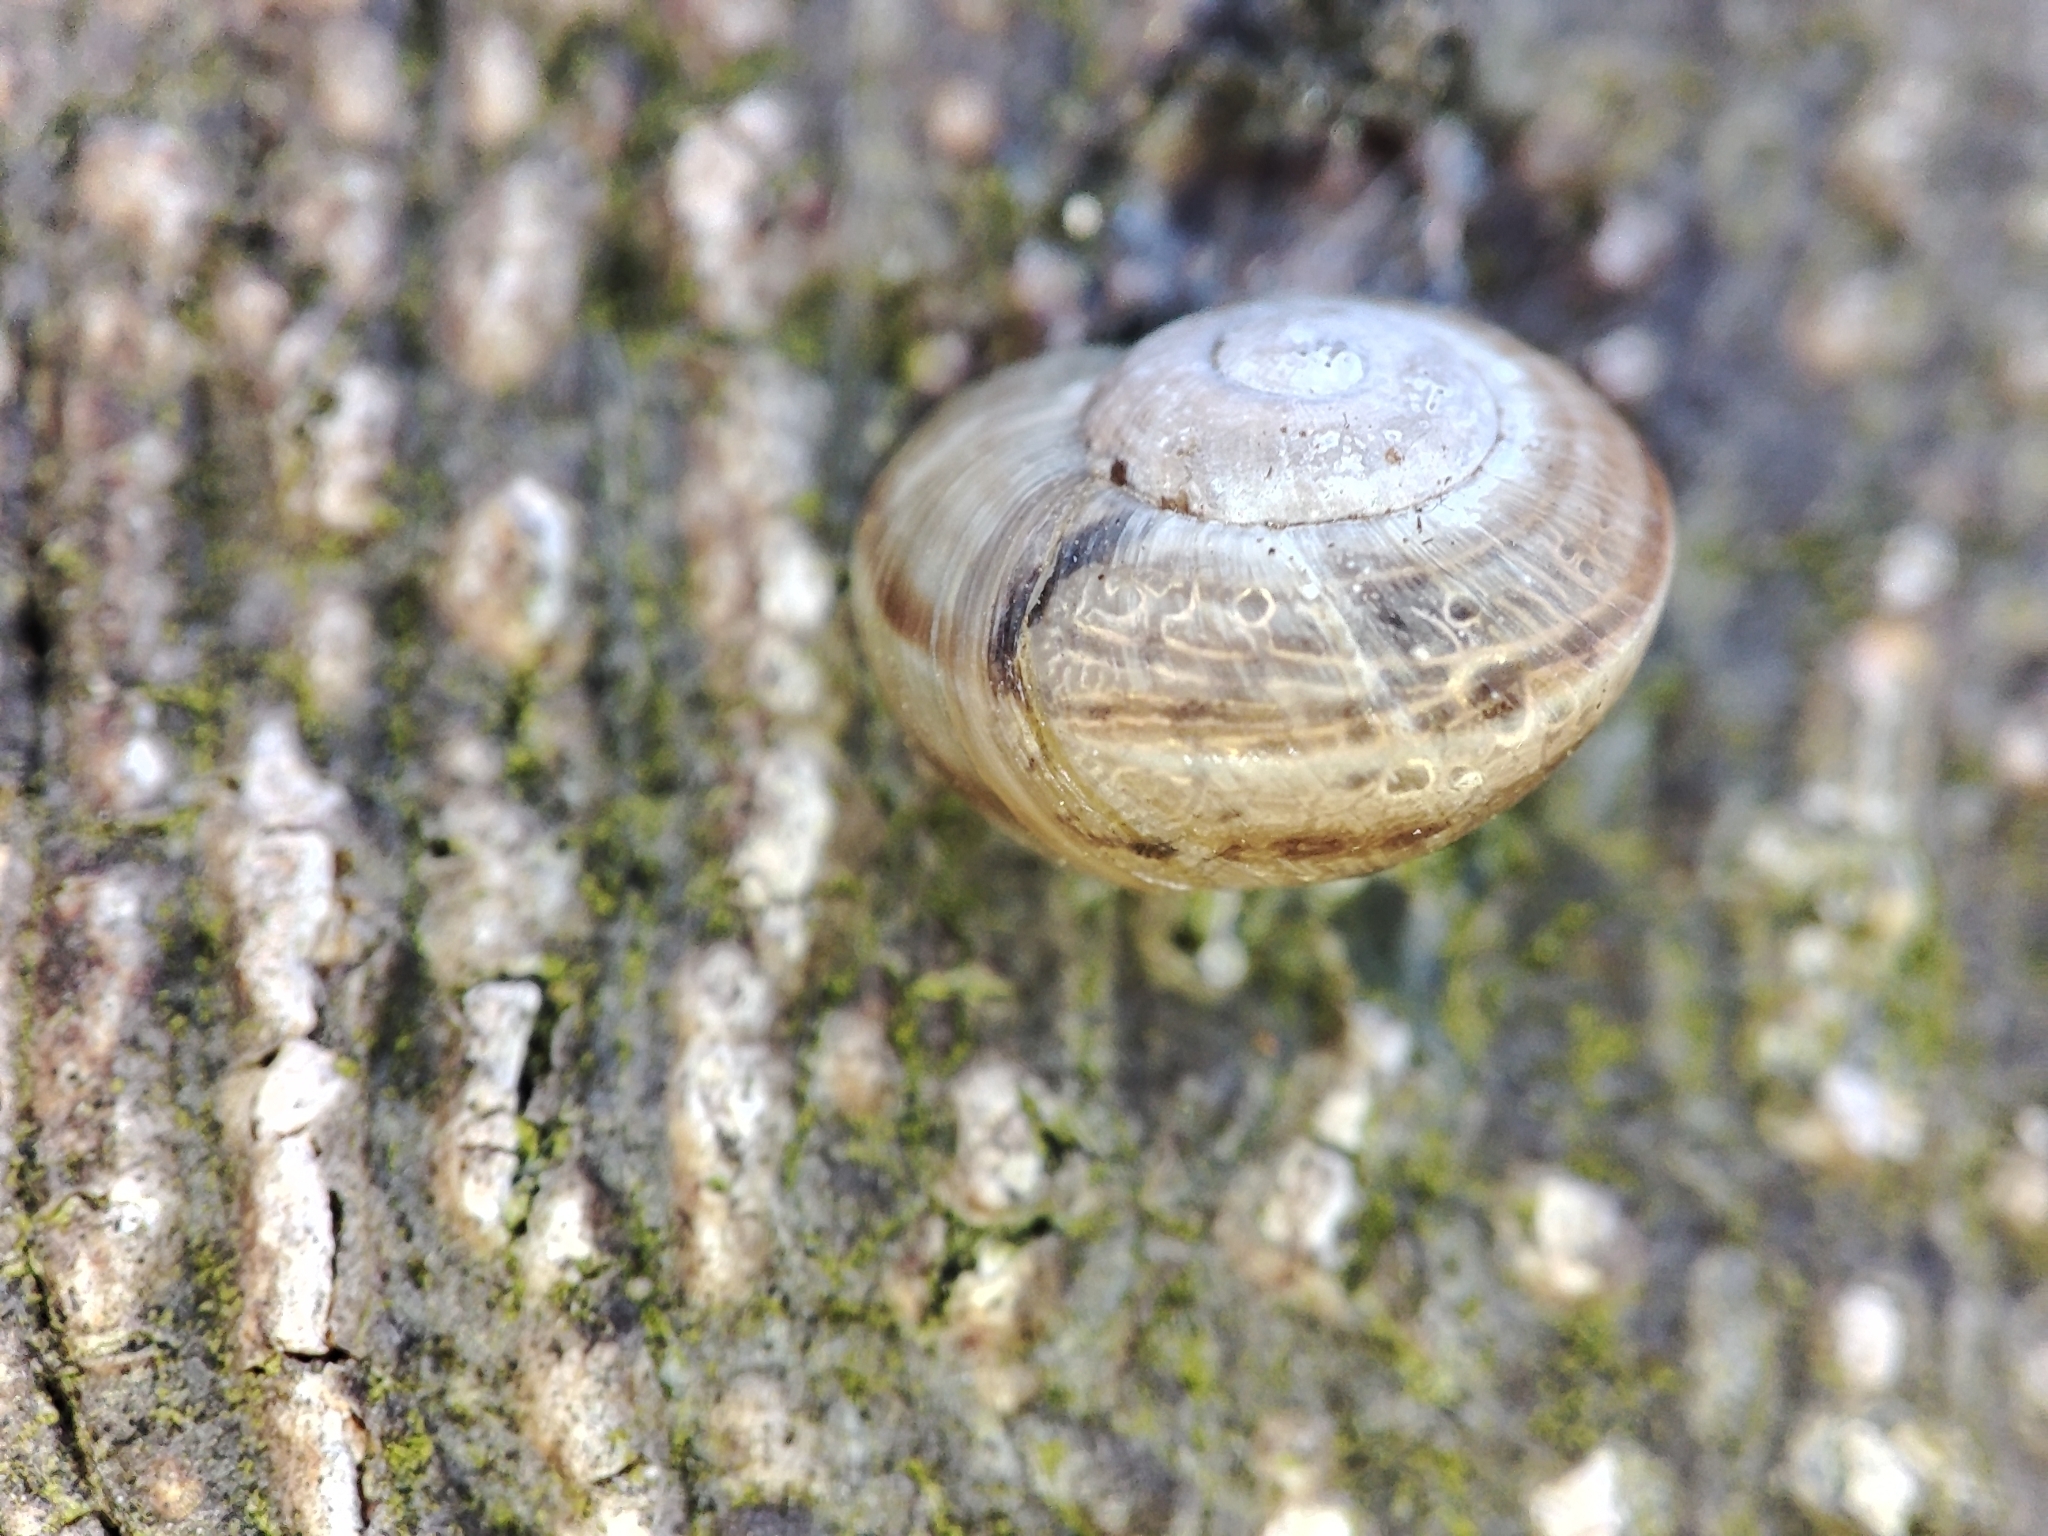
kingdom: Animalia
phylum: Mollusca
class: Gastropoda
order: Stylommatophora
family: Helicidae
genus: Caucasotachea
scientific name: Caucasotachea vindobonensis
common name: European helicid land snail
